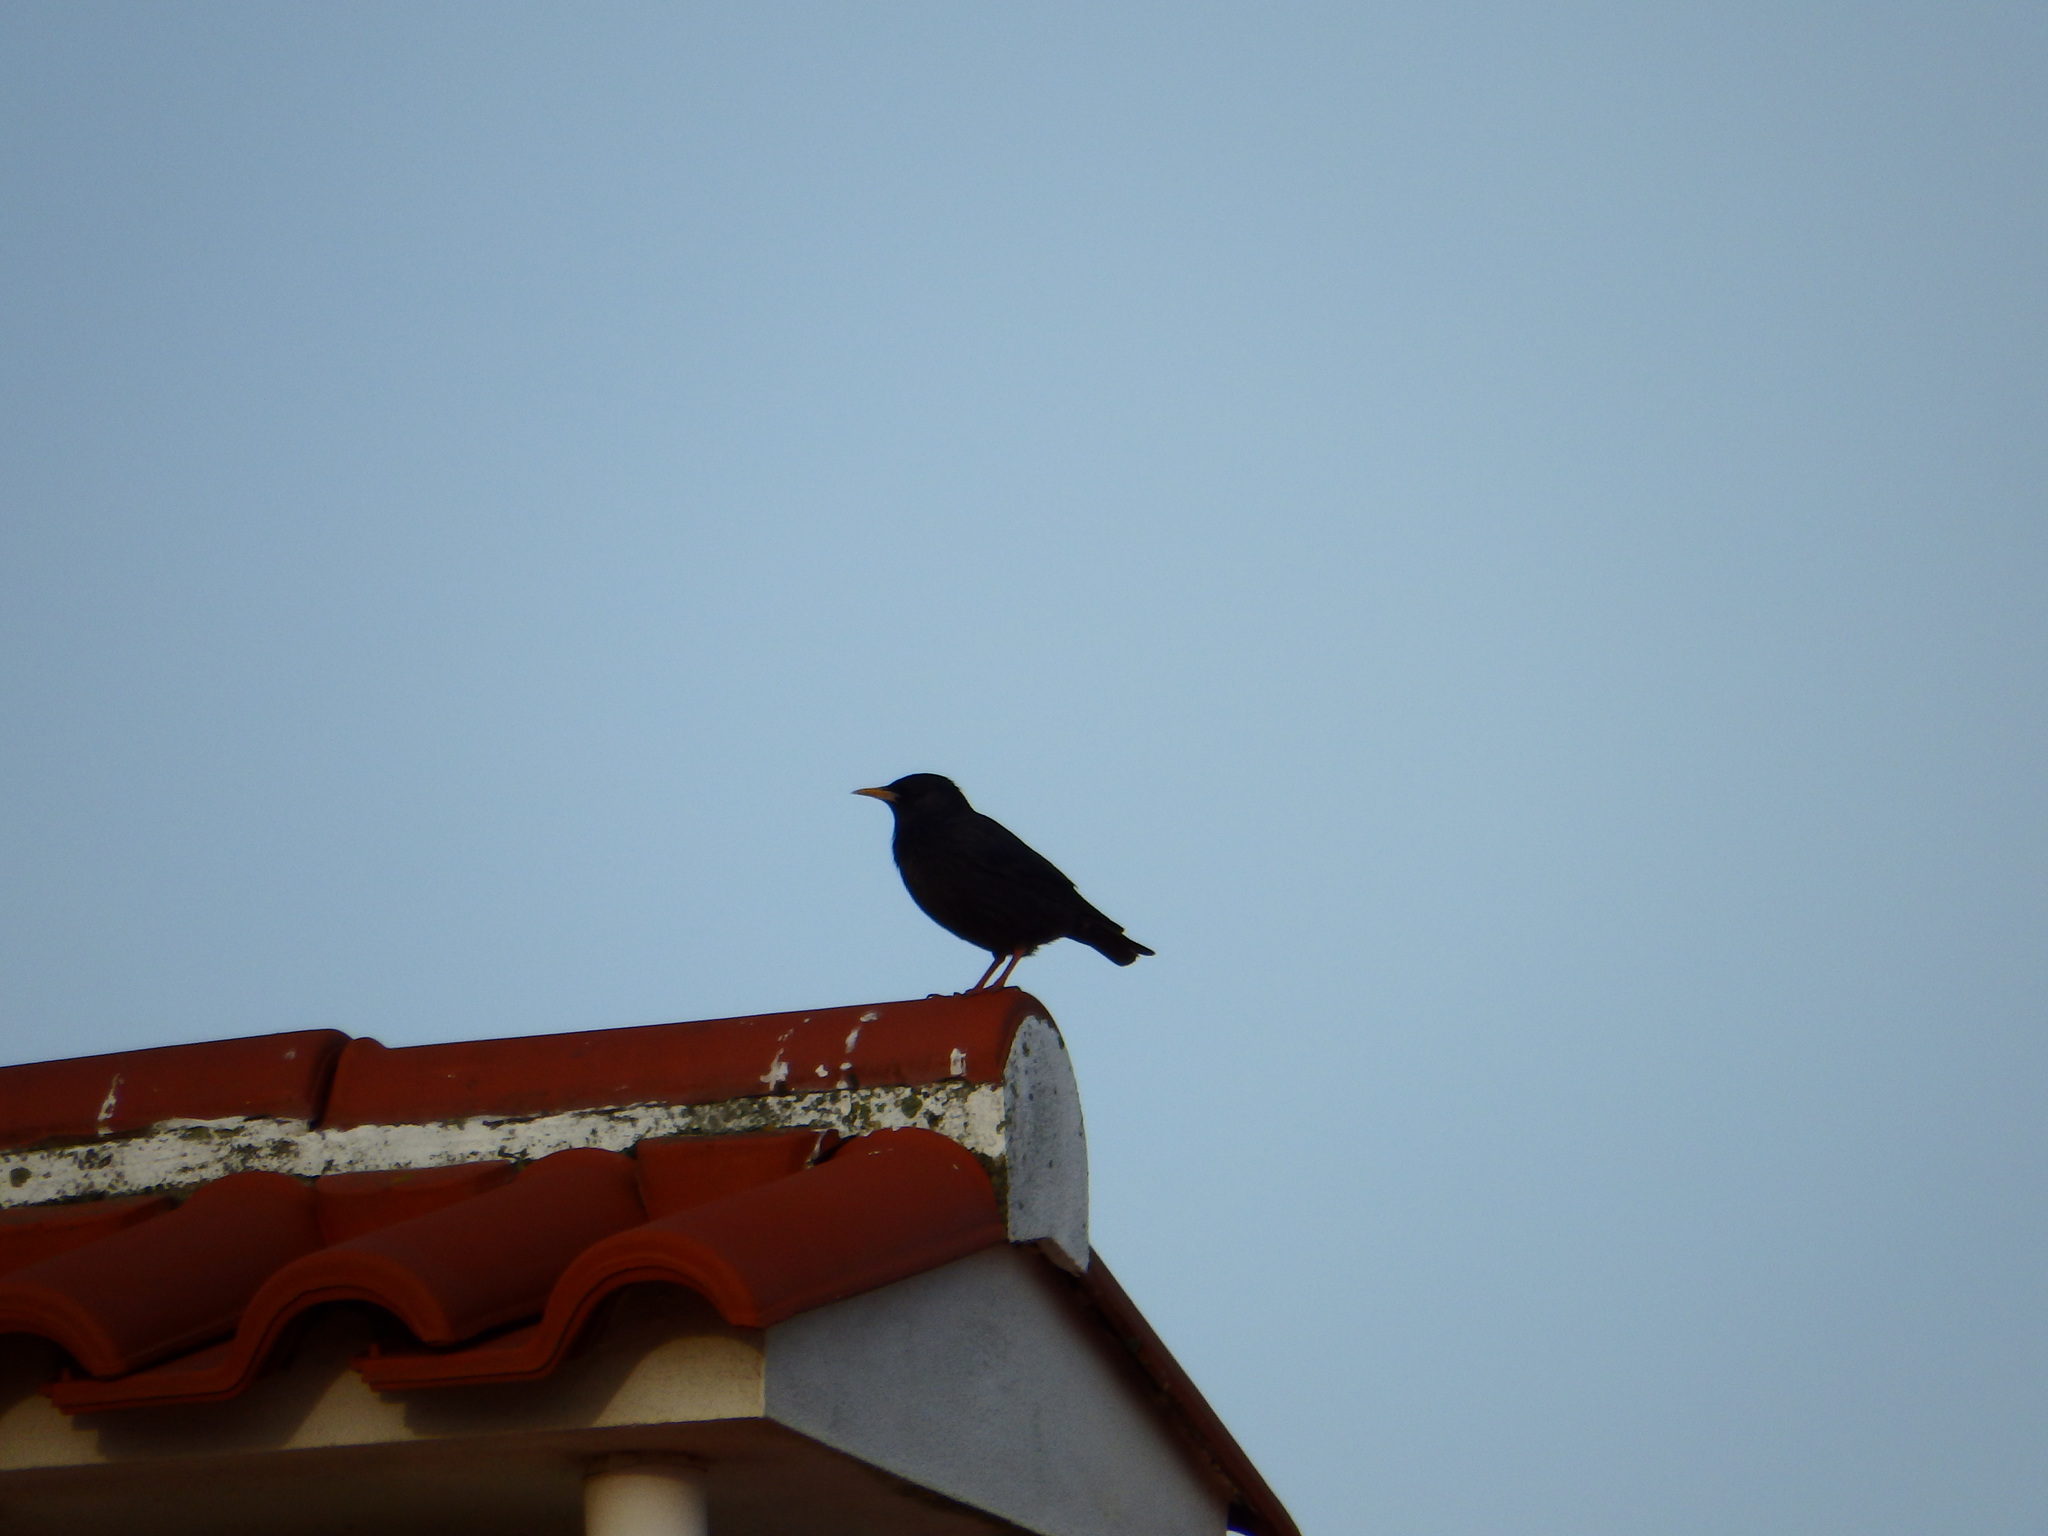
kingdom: Animalia
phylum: Chordata
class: Aves
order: Passeriformes
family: Sturnidae
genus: Sturnus
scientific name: Sturnus unicolor
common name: Spotless starling
